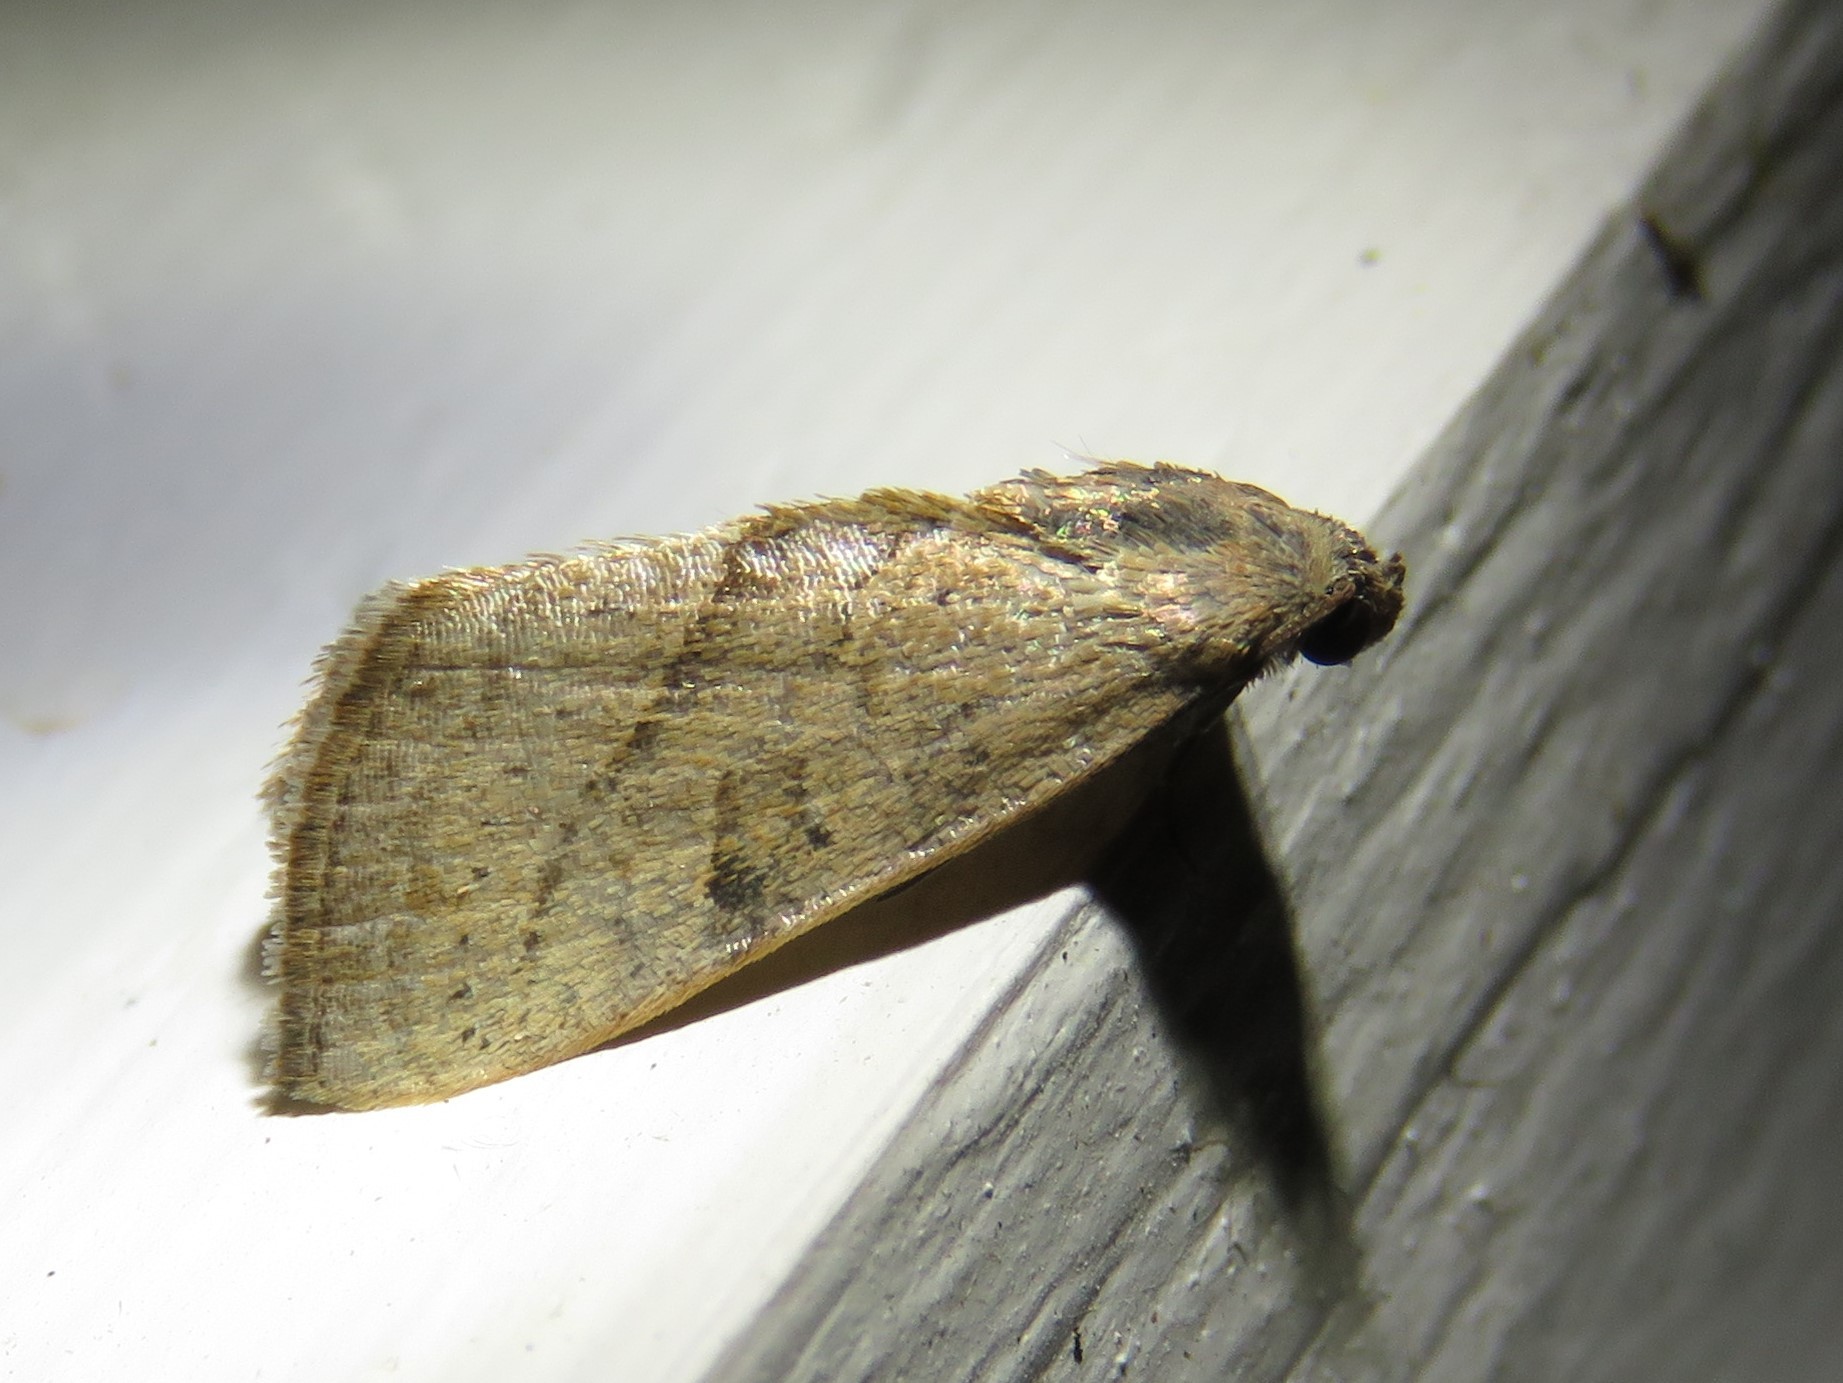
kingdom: Animalia
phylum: Arthropoda
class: Insecta
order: Lepidoptera
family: Noctuidae
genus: Galgula
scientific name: Galgula partita
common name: Wedgeling
